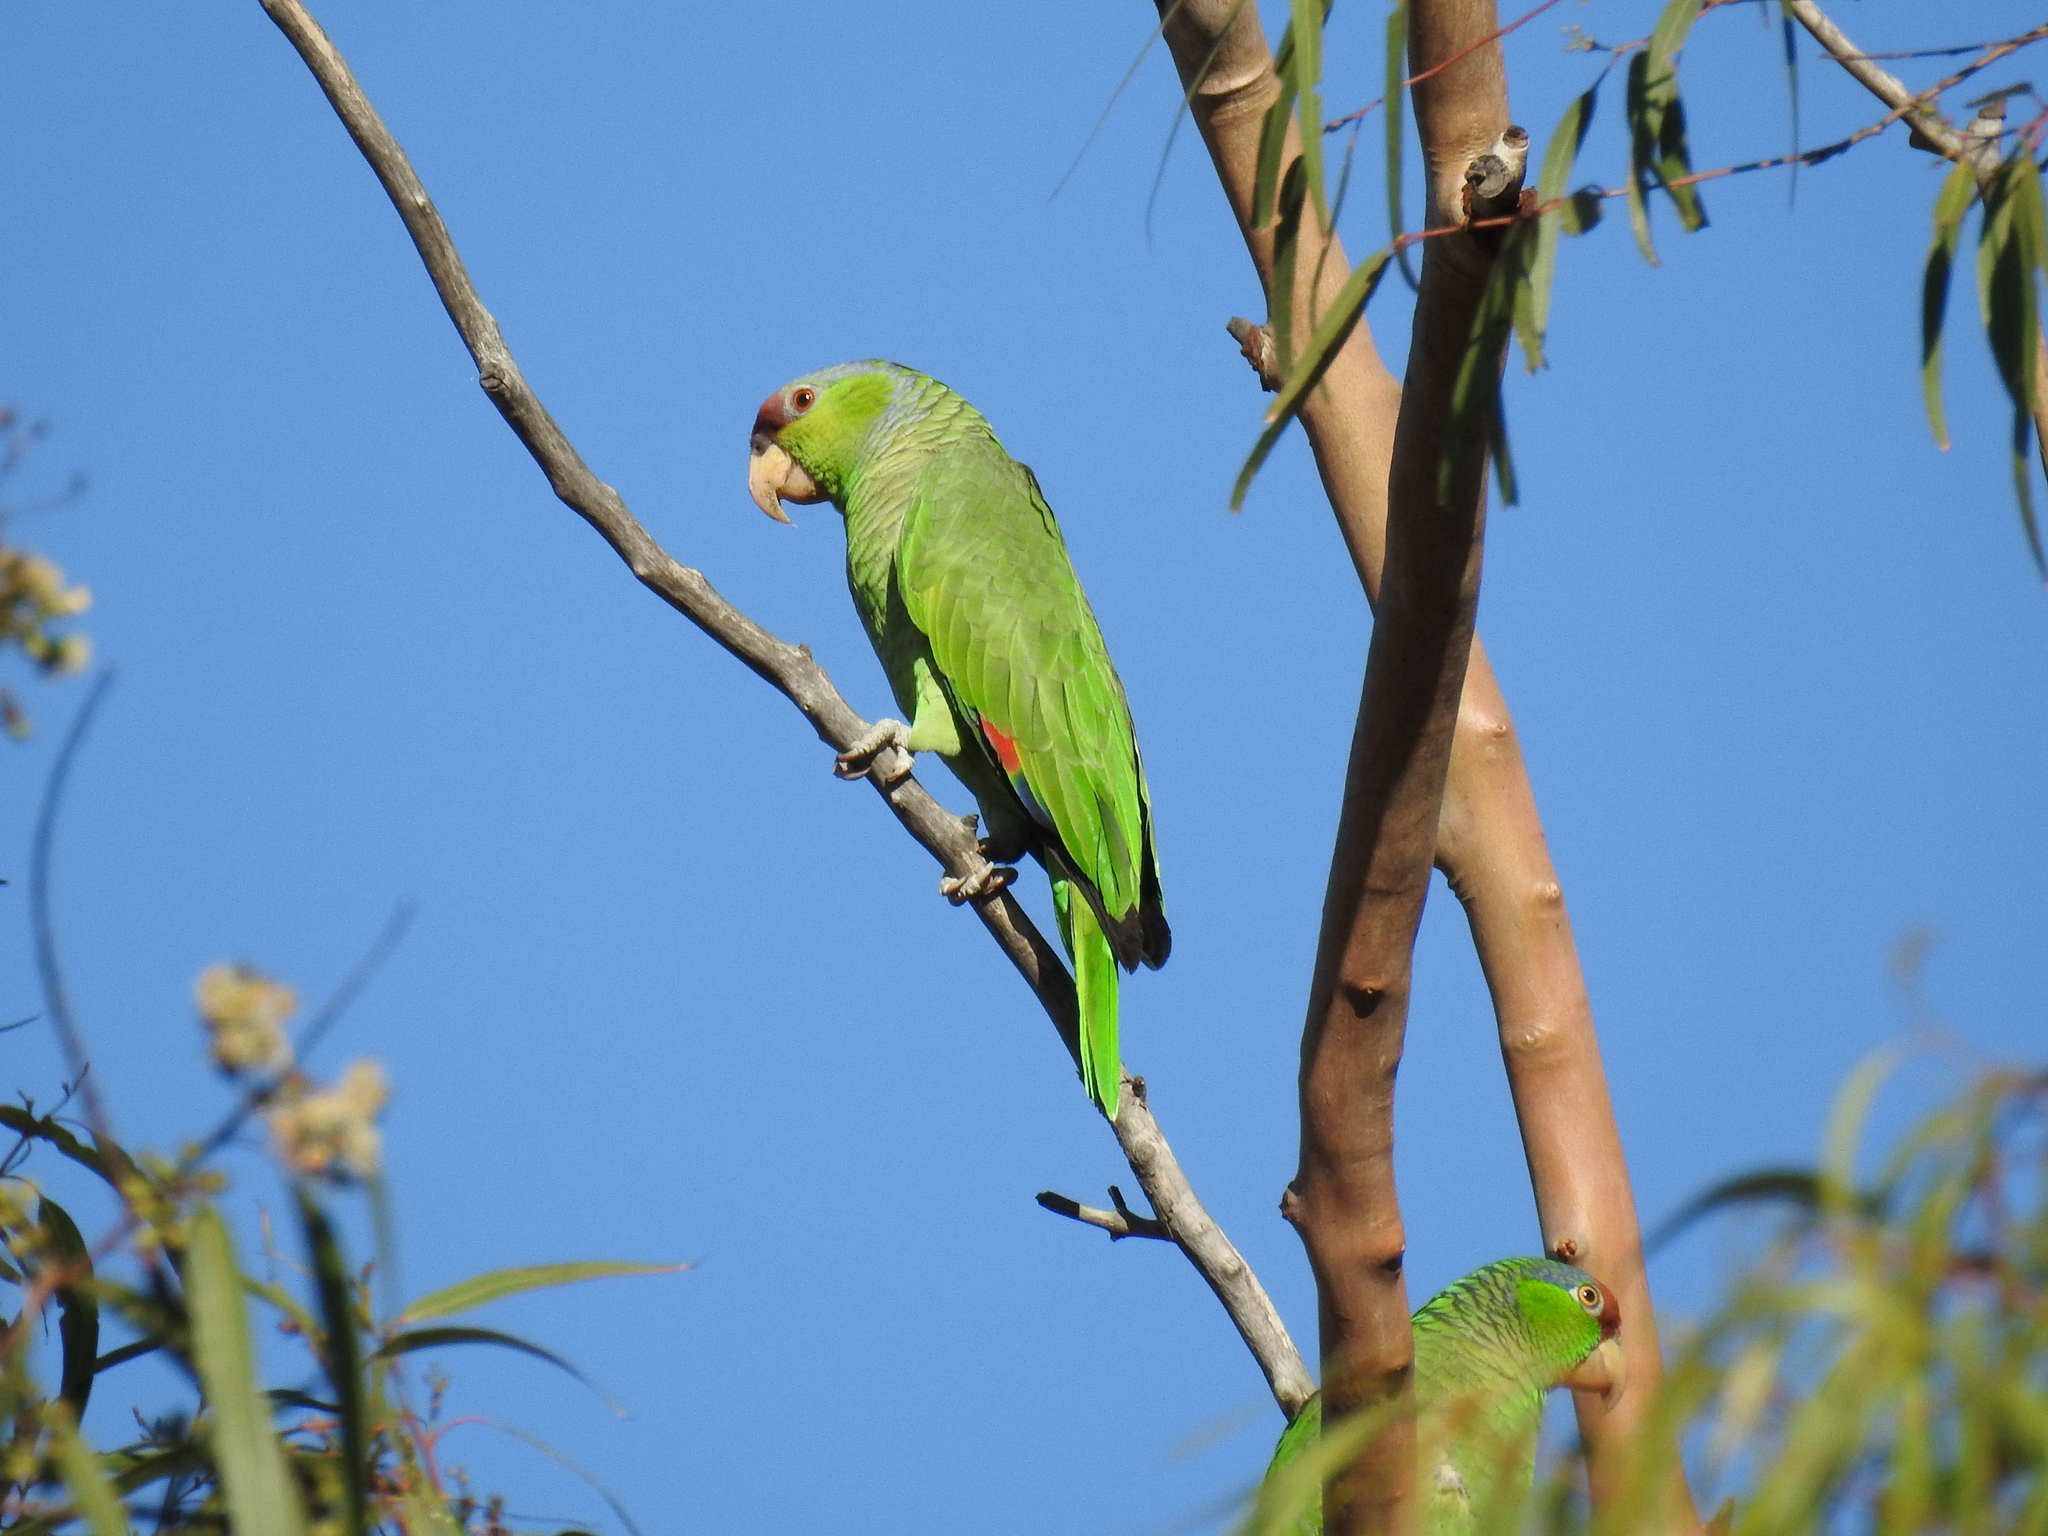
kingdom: Animalia
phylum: Chordata
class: Aves
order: Psittaciformes
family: Psittacidae
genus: Amazona
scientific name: Amazona finschi
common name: Lilac-crowned amazon
